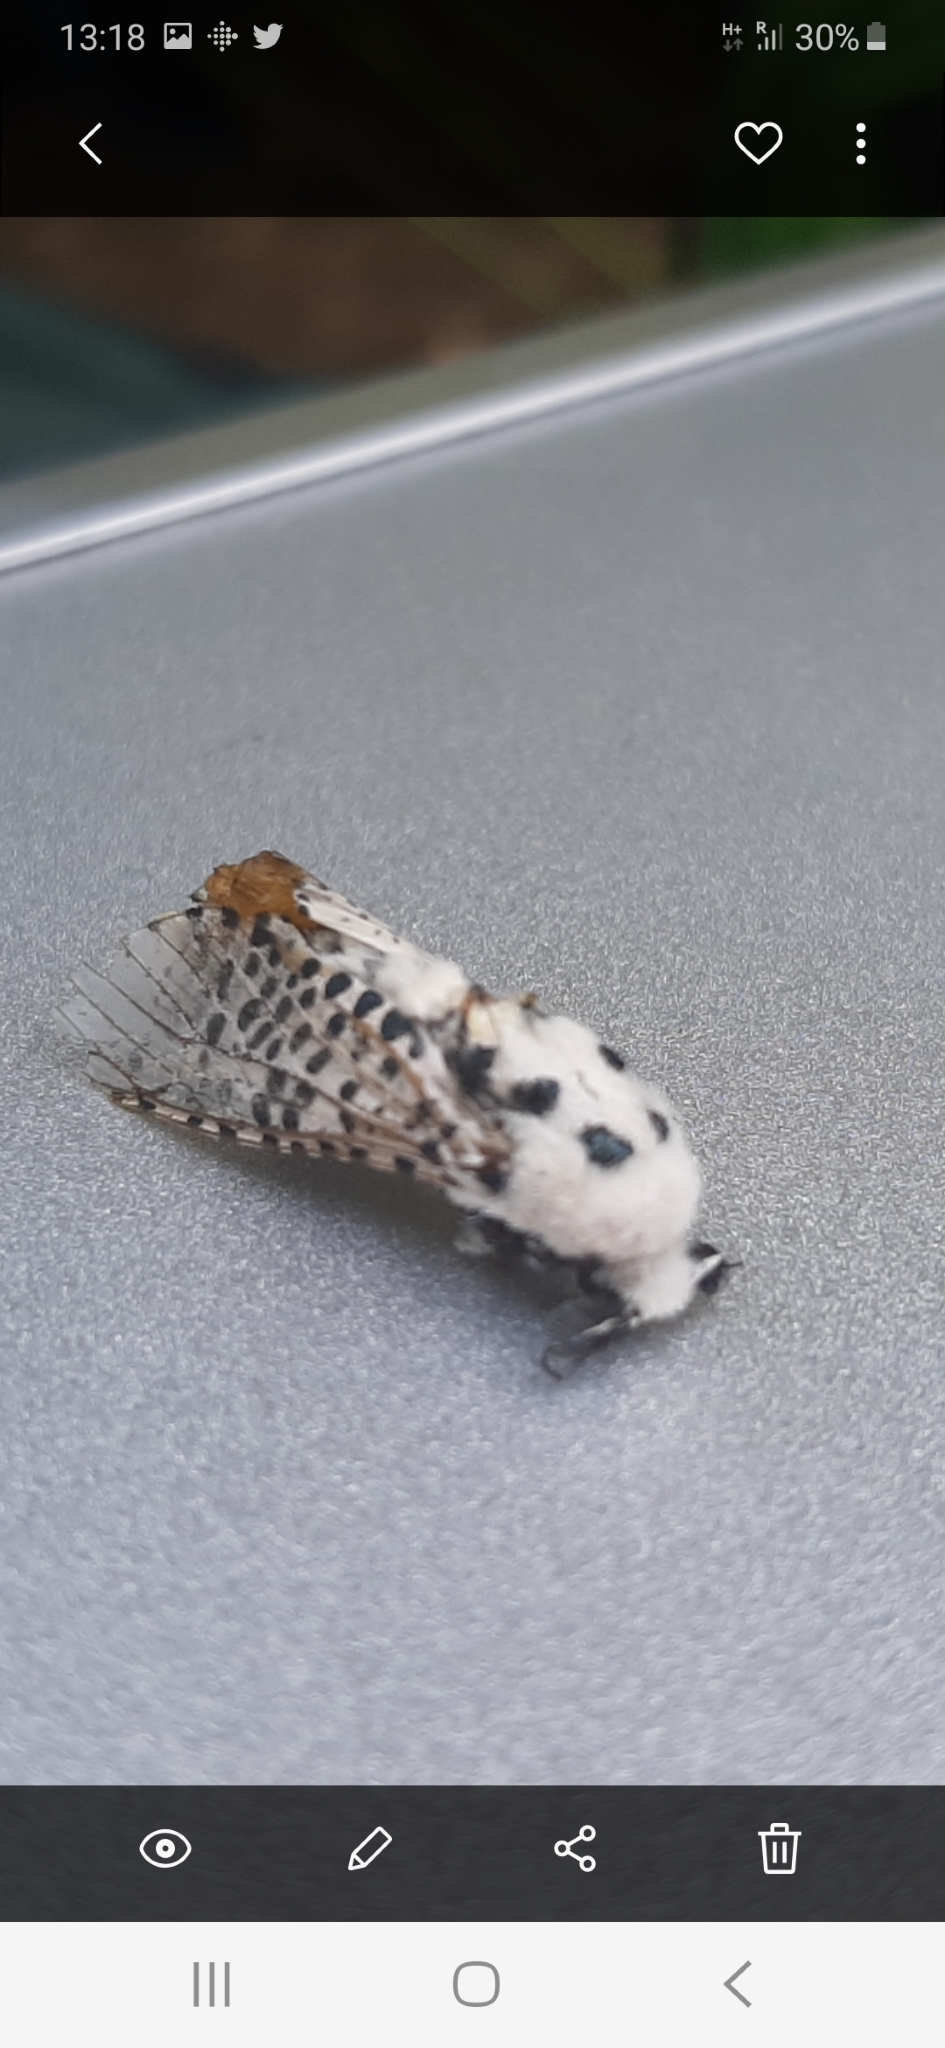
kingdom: Animalia
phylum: Arthropoda
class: Insecta
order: Lepidoptera
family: Cossidae
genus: Zeuzera
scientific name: Zeuzera pyrina
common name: Leopard moth
